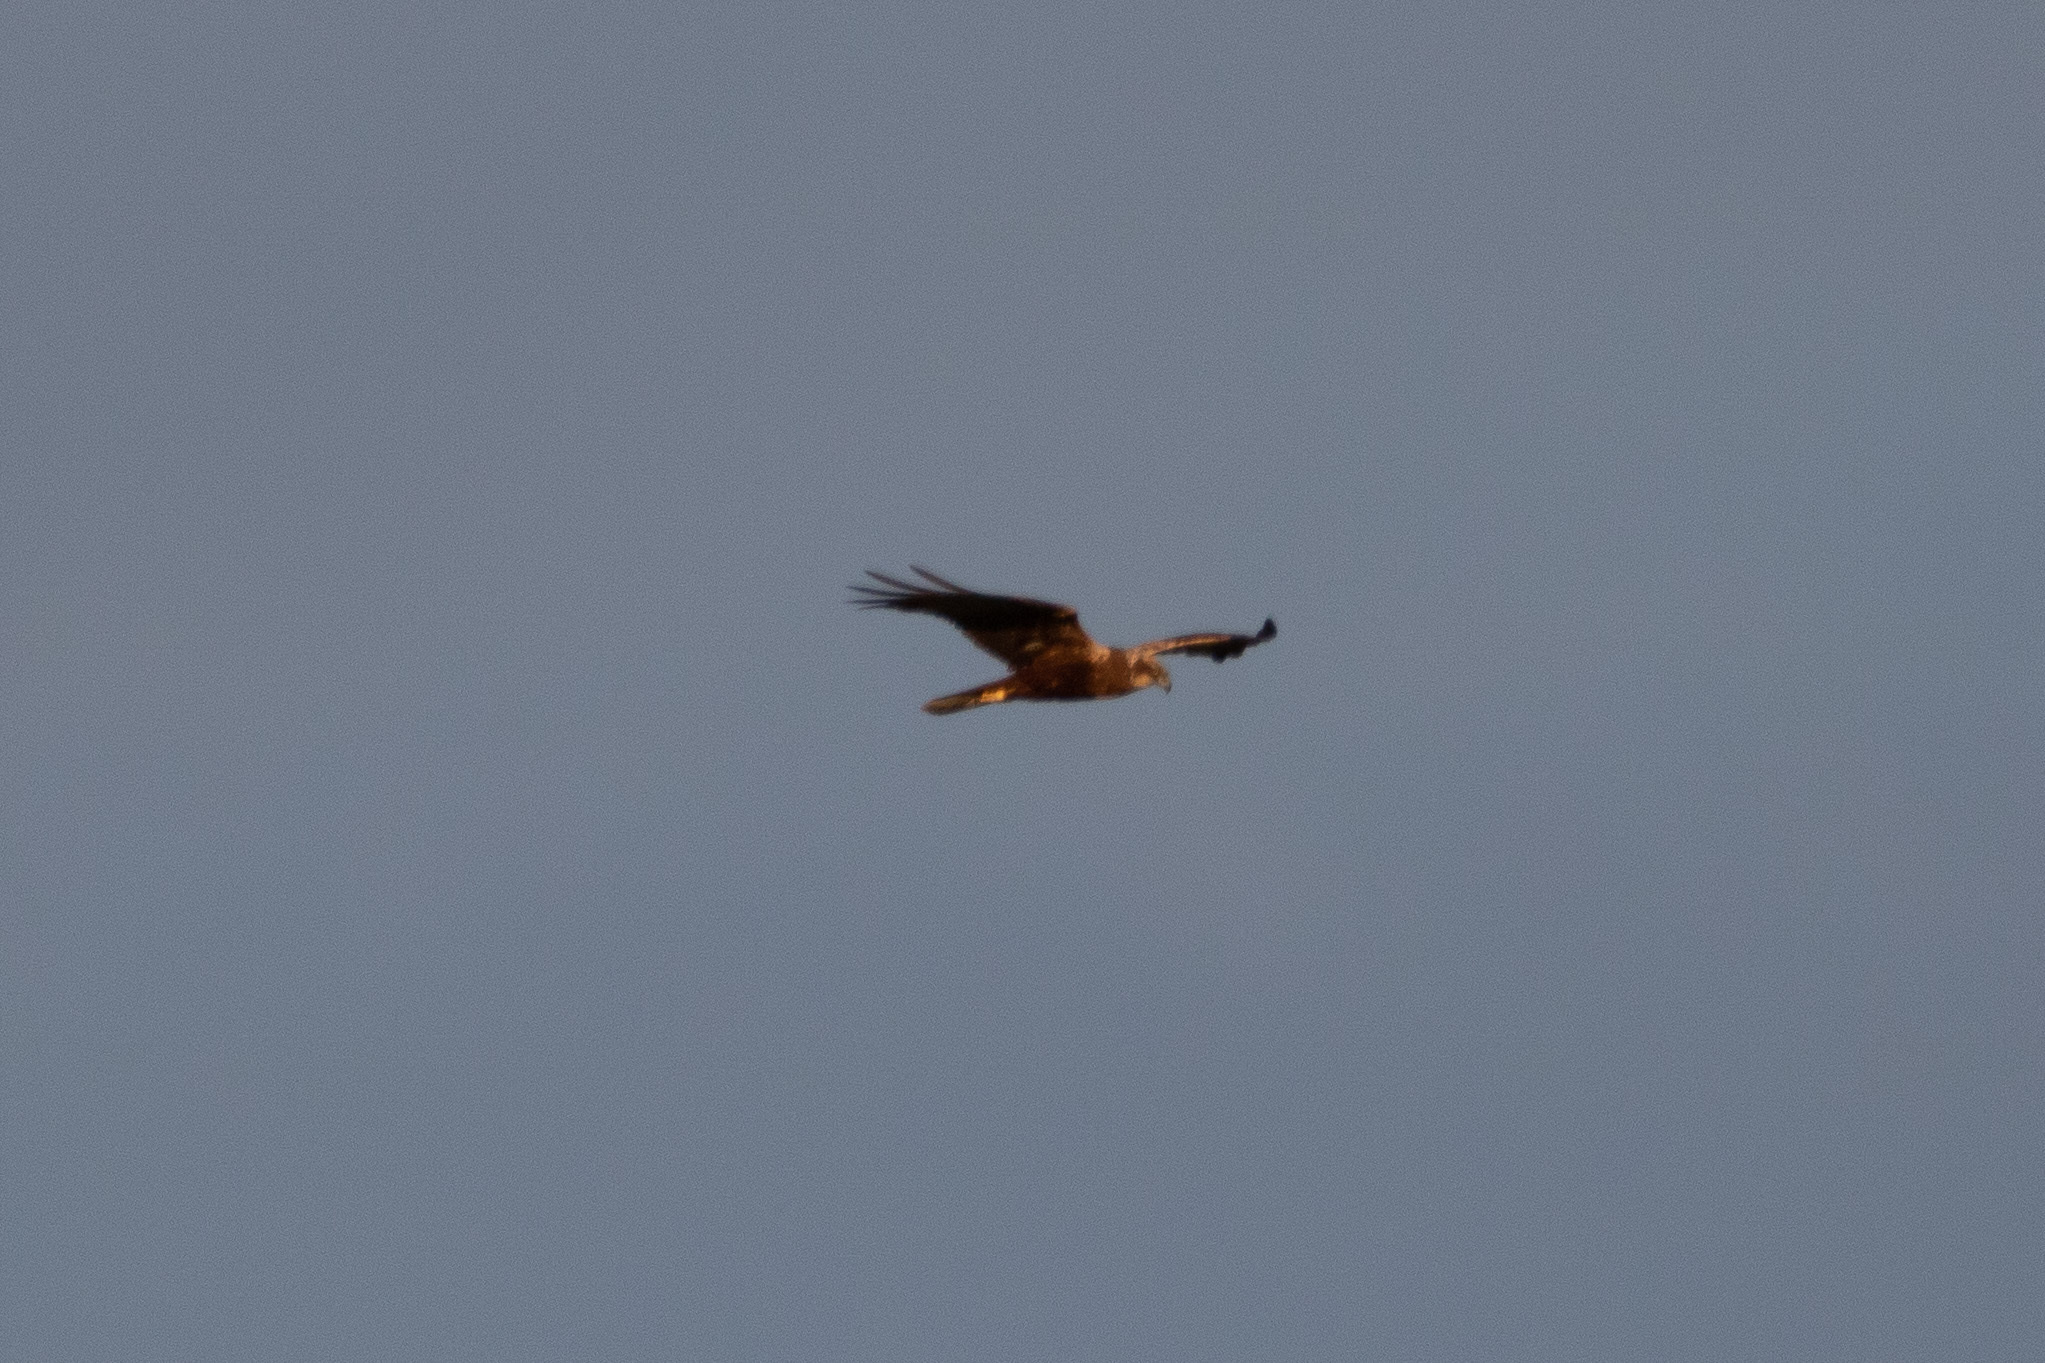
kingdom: Animalia
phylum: Chordata
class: Aves
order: Accipitriformes
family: Accipitridae
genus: Circus
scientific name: Circus aeruginosus
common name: Western marsh harrier
